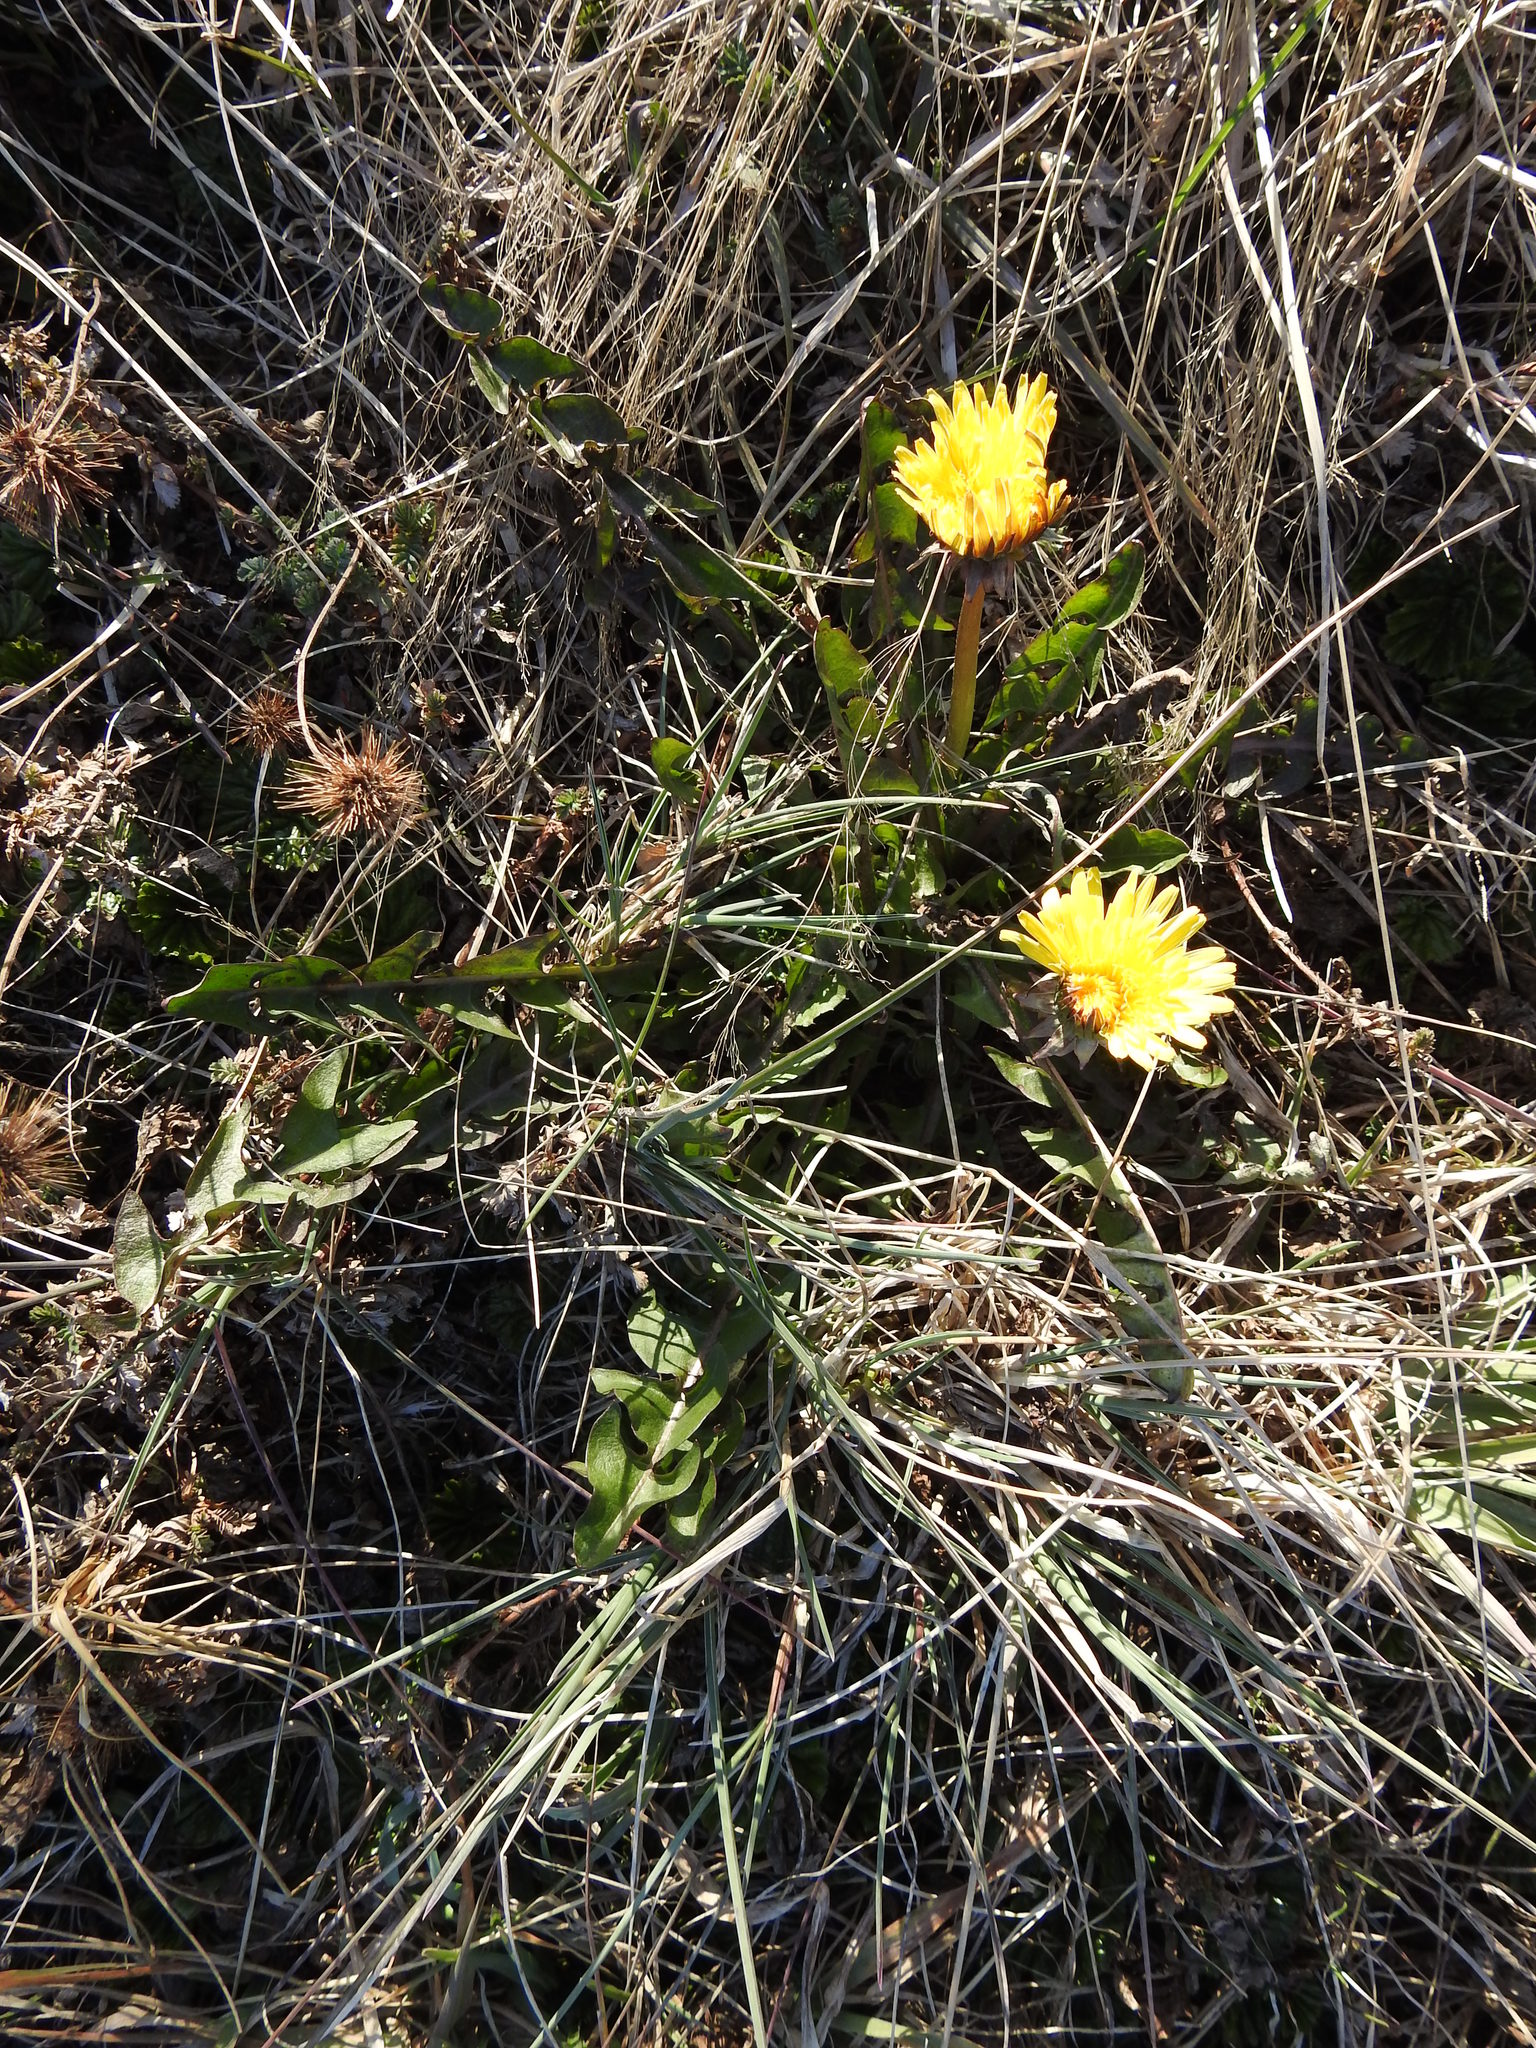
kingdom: Plantae
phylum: Tracheophyta
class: Magnoliopsida
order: Asterales
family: Asteraceae
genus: Taraxacum
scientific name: Taraxacum officinale
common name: Common dandelion
